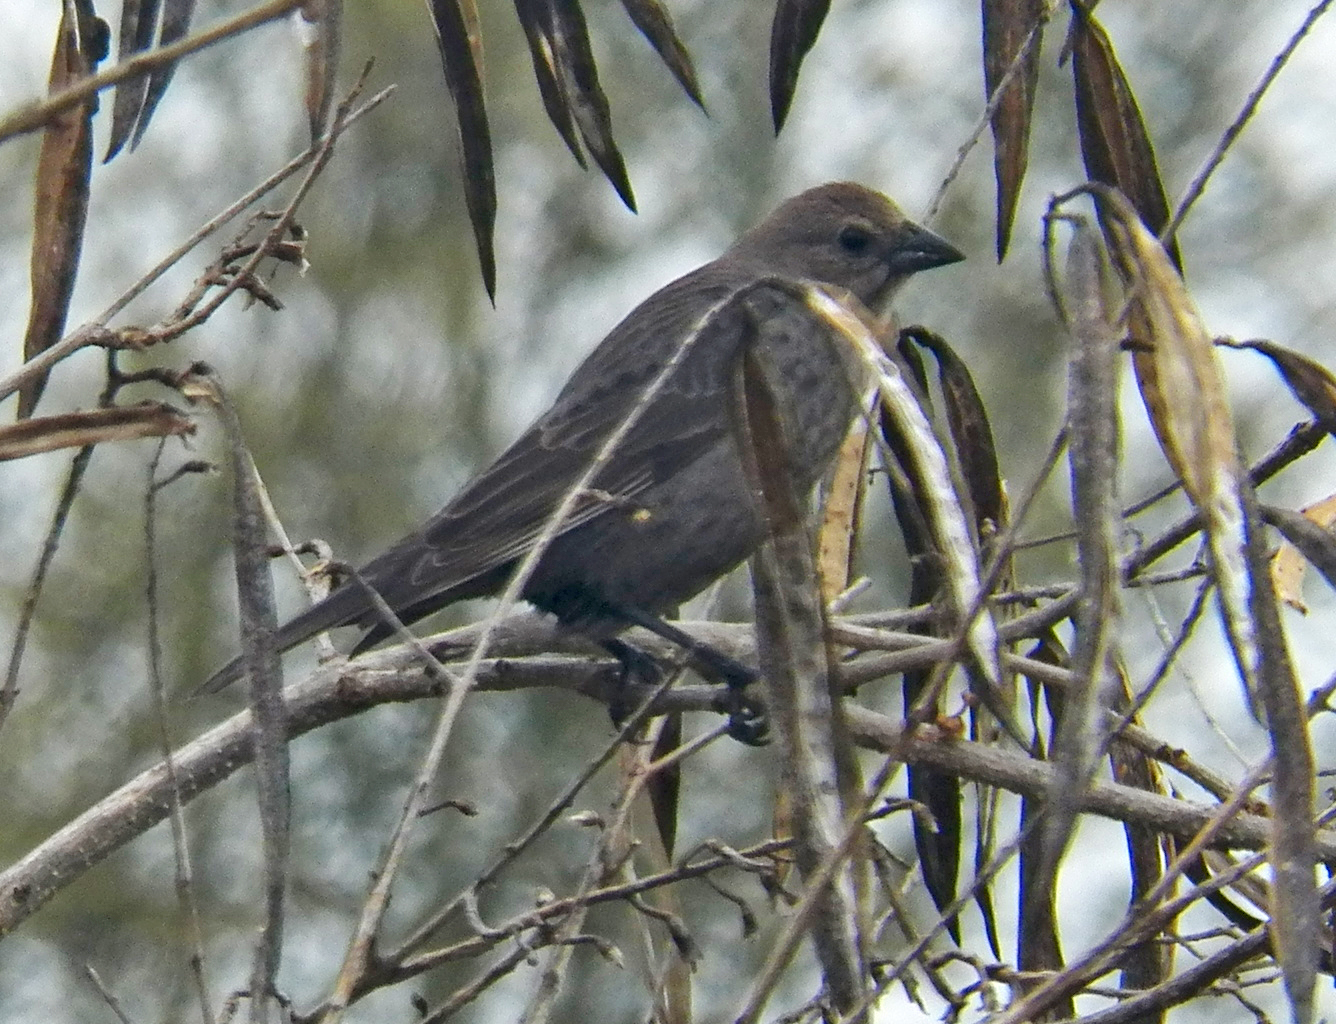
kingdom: Animalia
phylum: Chordata
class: Aves
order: Passeriformes
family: Icteridae
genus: Molothrus
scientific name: Molothrus ater
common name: Brown-headed cowbird
